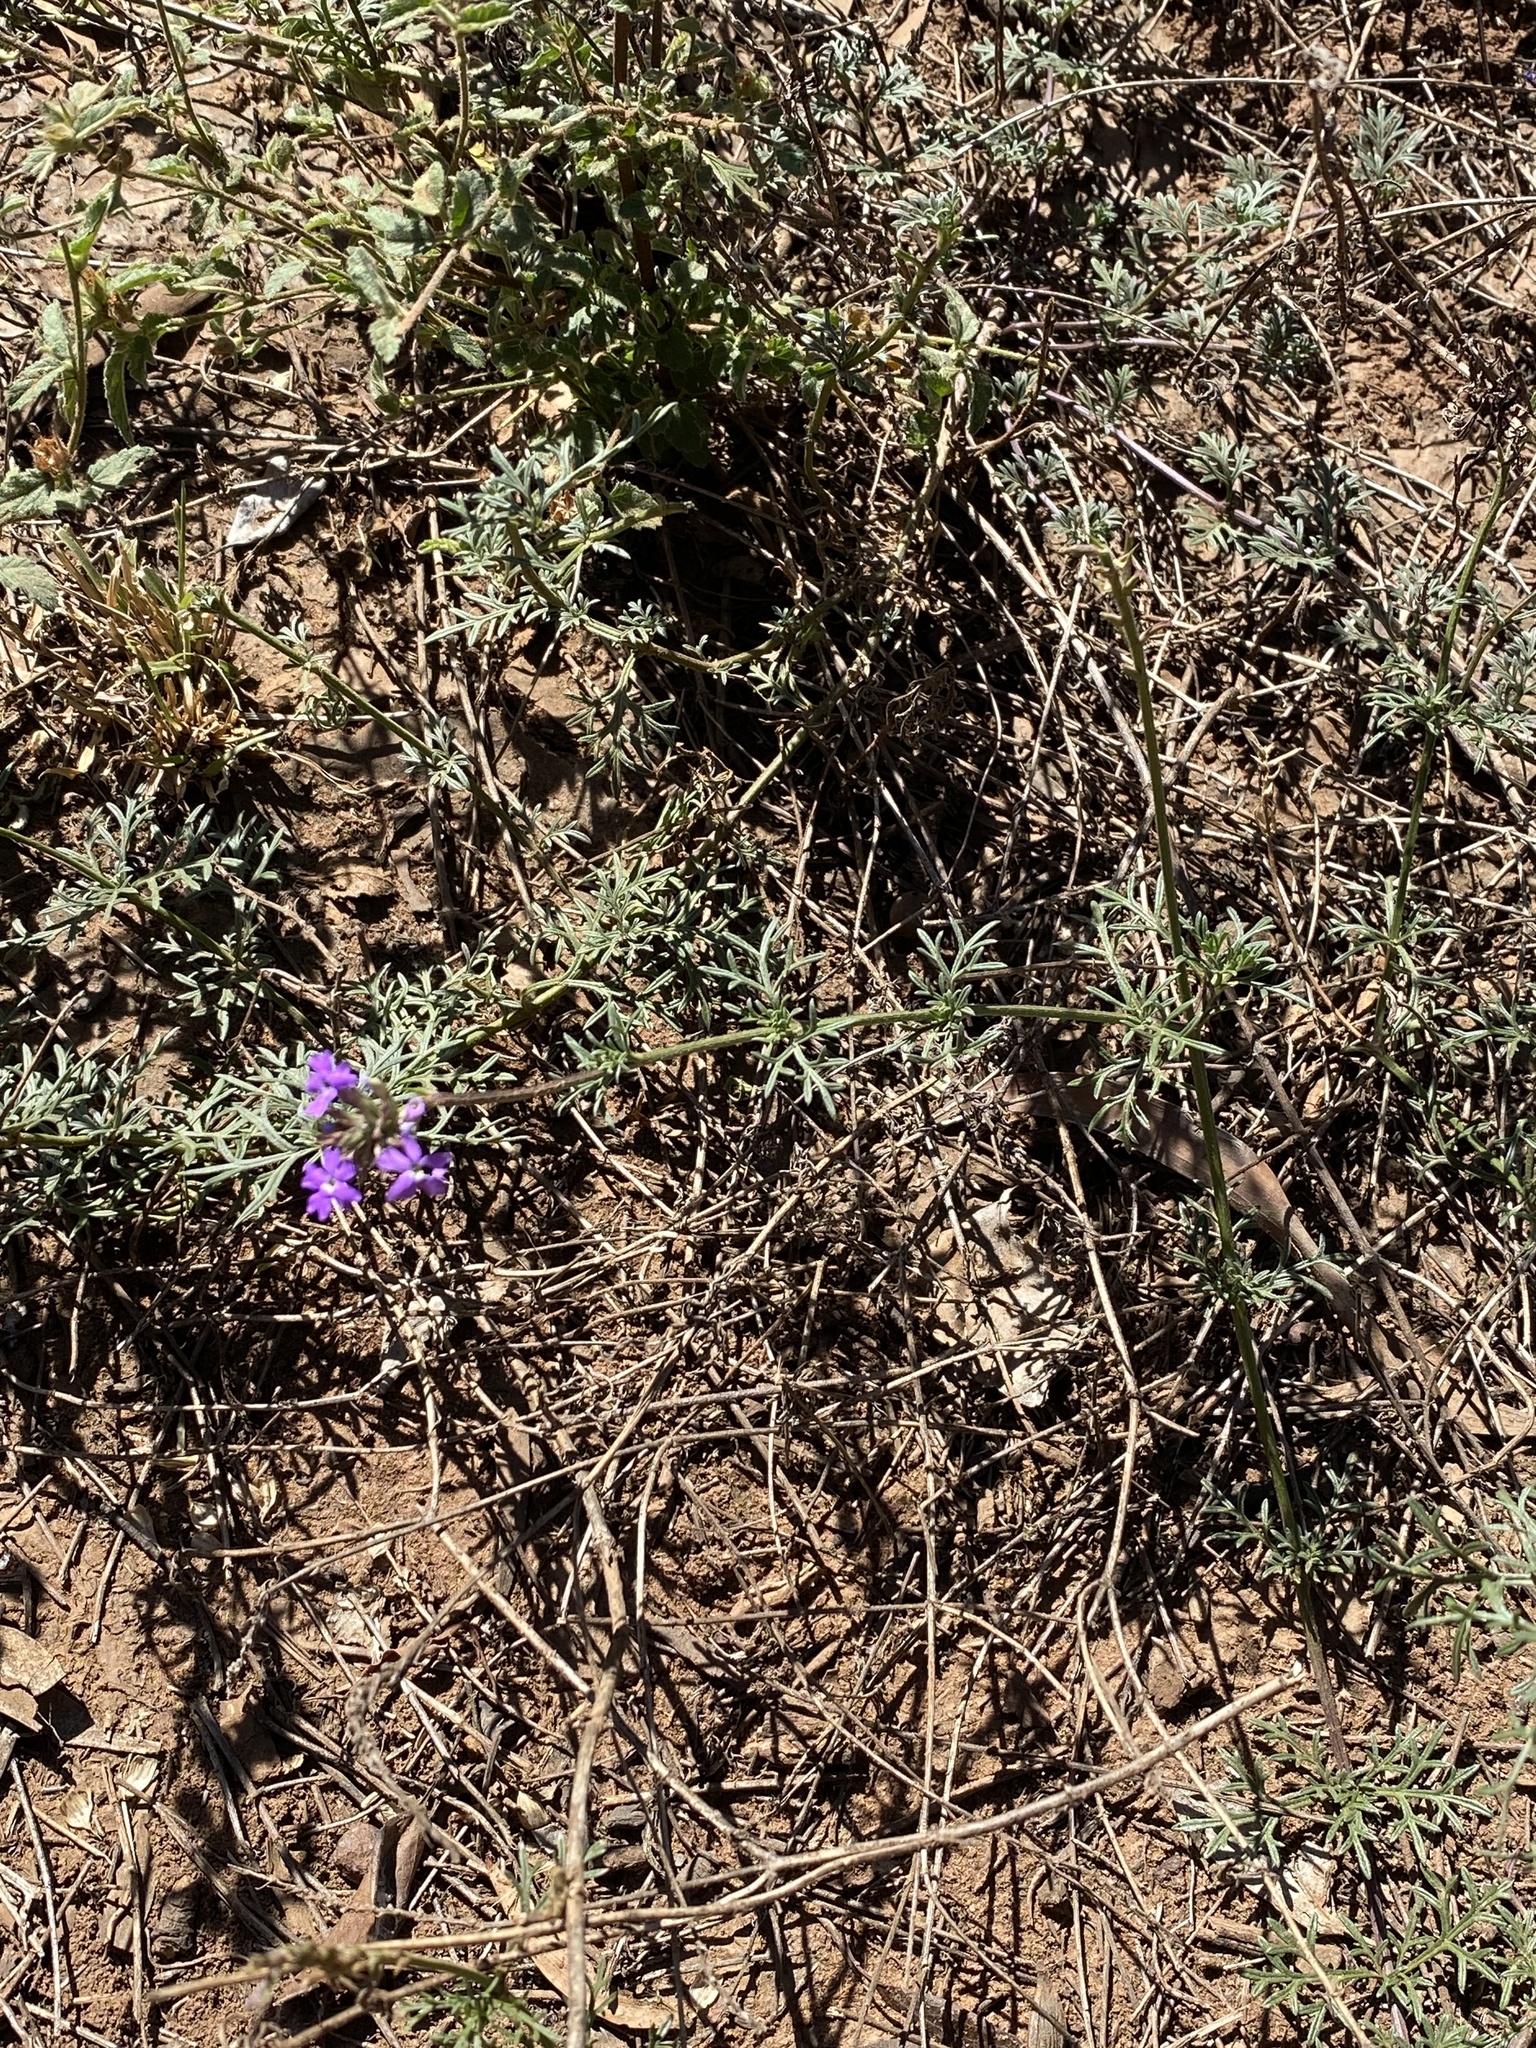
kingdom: Plantae
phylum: Tracheophyta
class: Magnoliopsida
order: Lamiales
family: Verbenaceae
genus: Verbena
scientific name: Verbena aristigera
